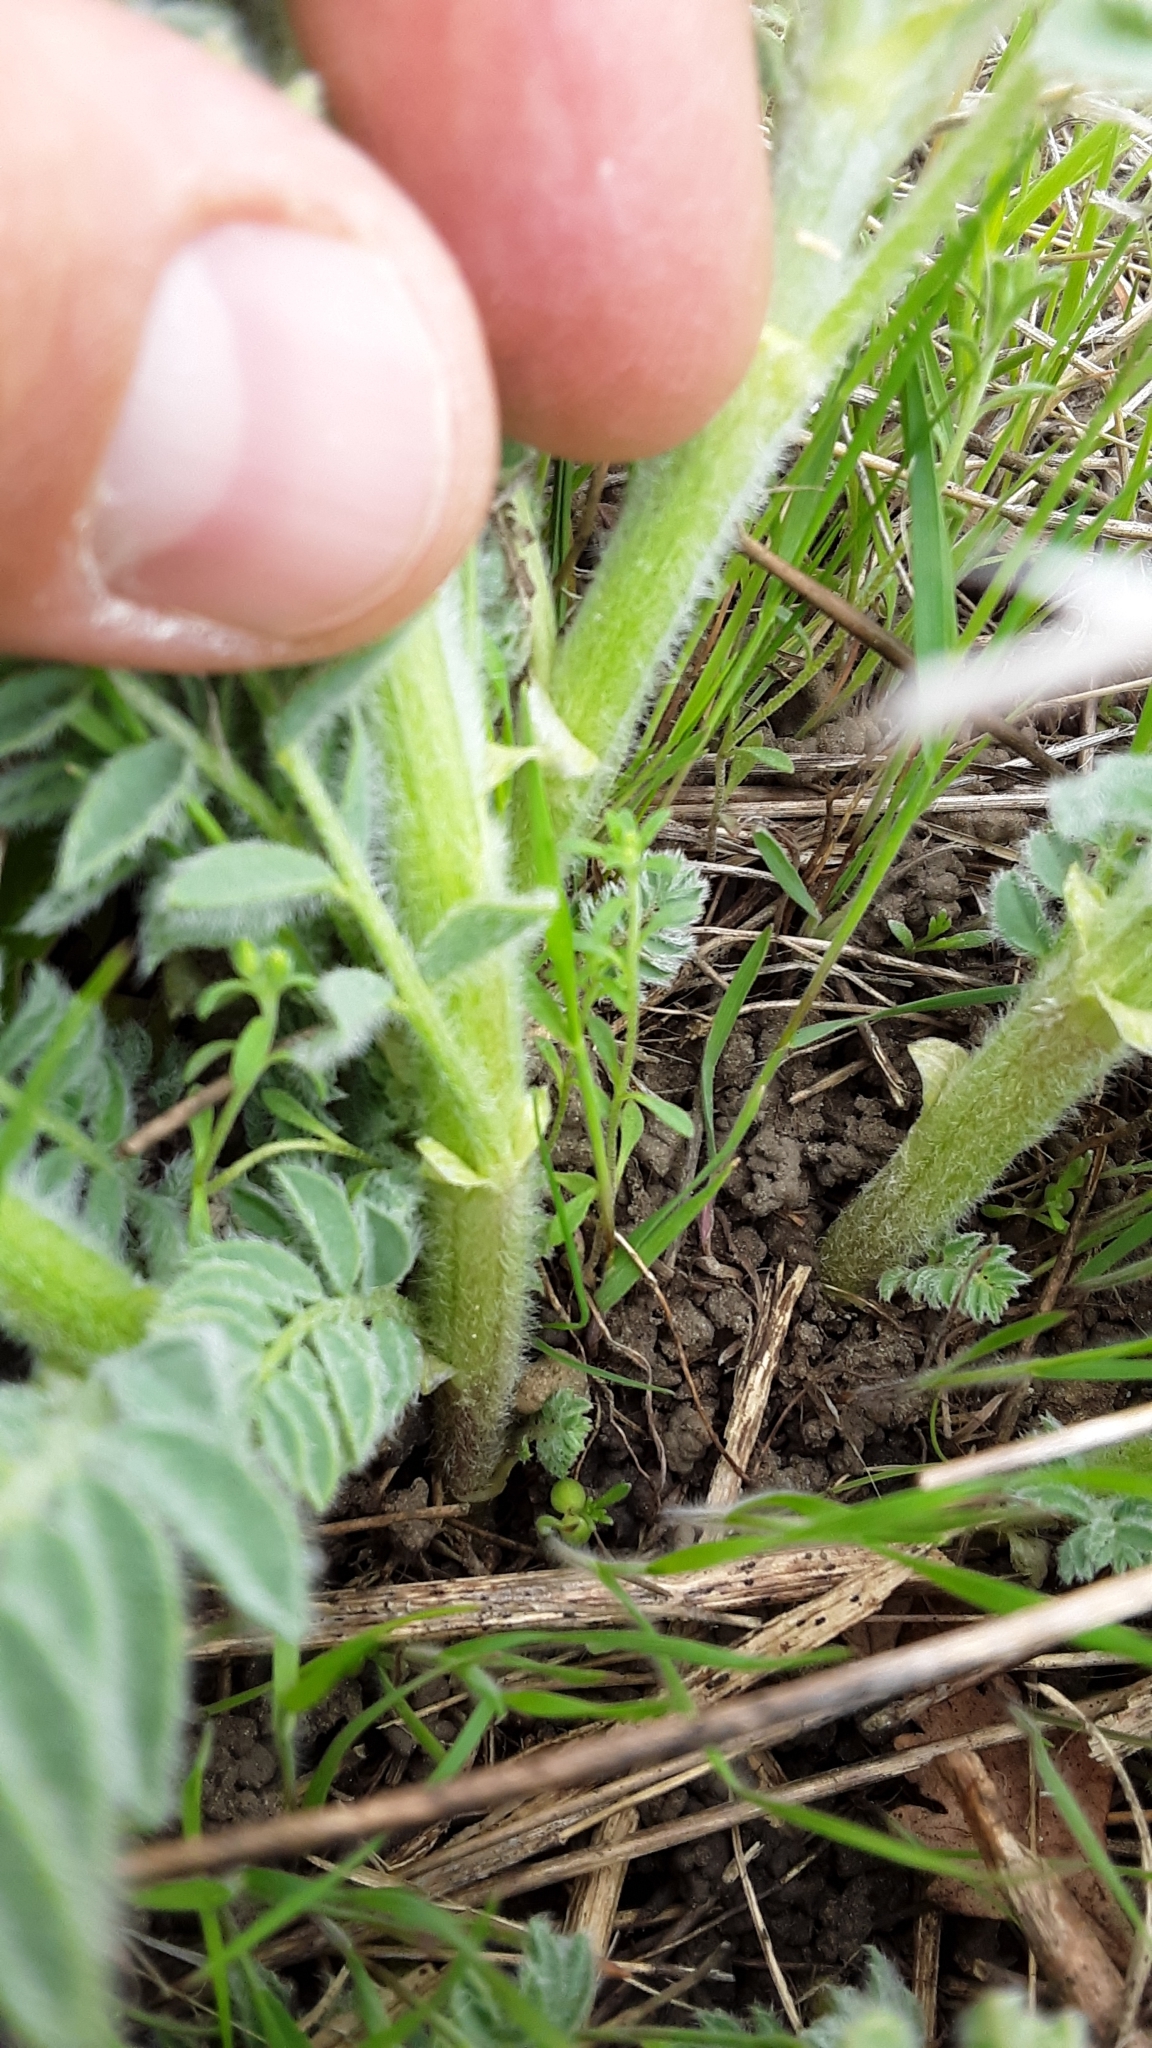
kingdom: Plantae
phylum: Tracheophyta
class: Magnoliopsida
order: Fabales
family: Fabaceae
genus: Astragalus
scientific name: Astragalus drummondii
